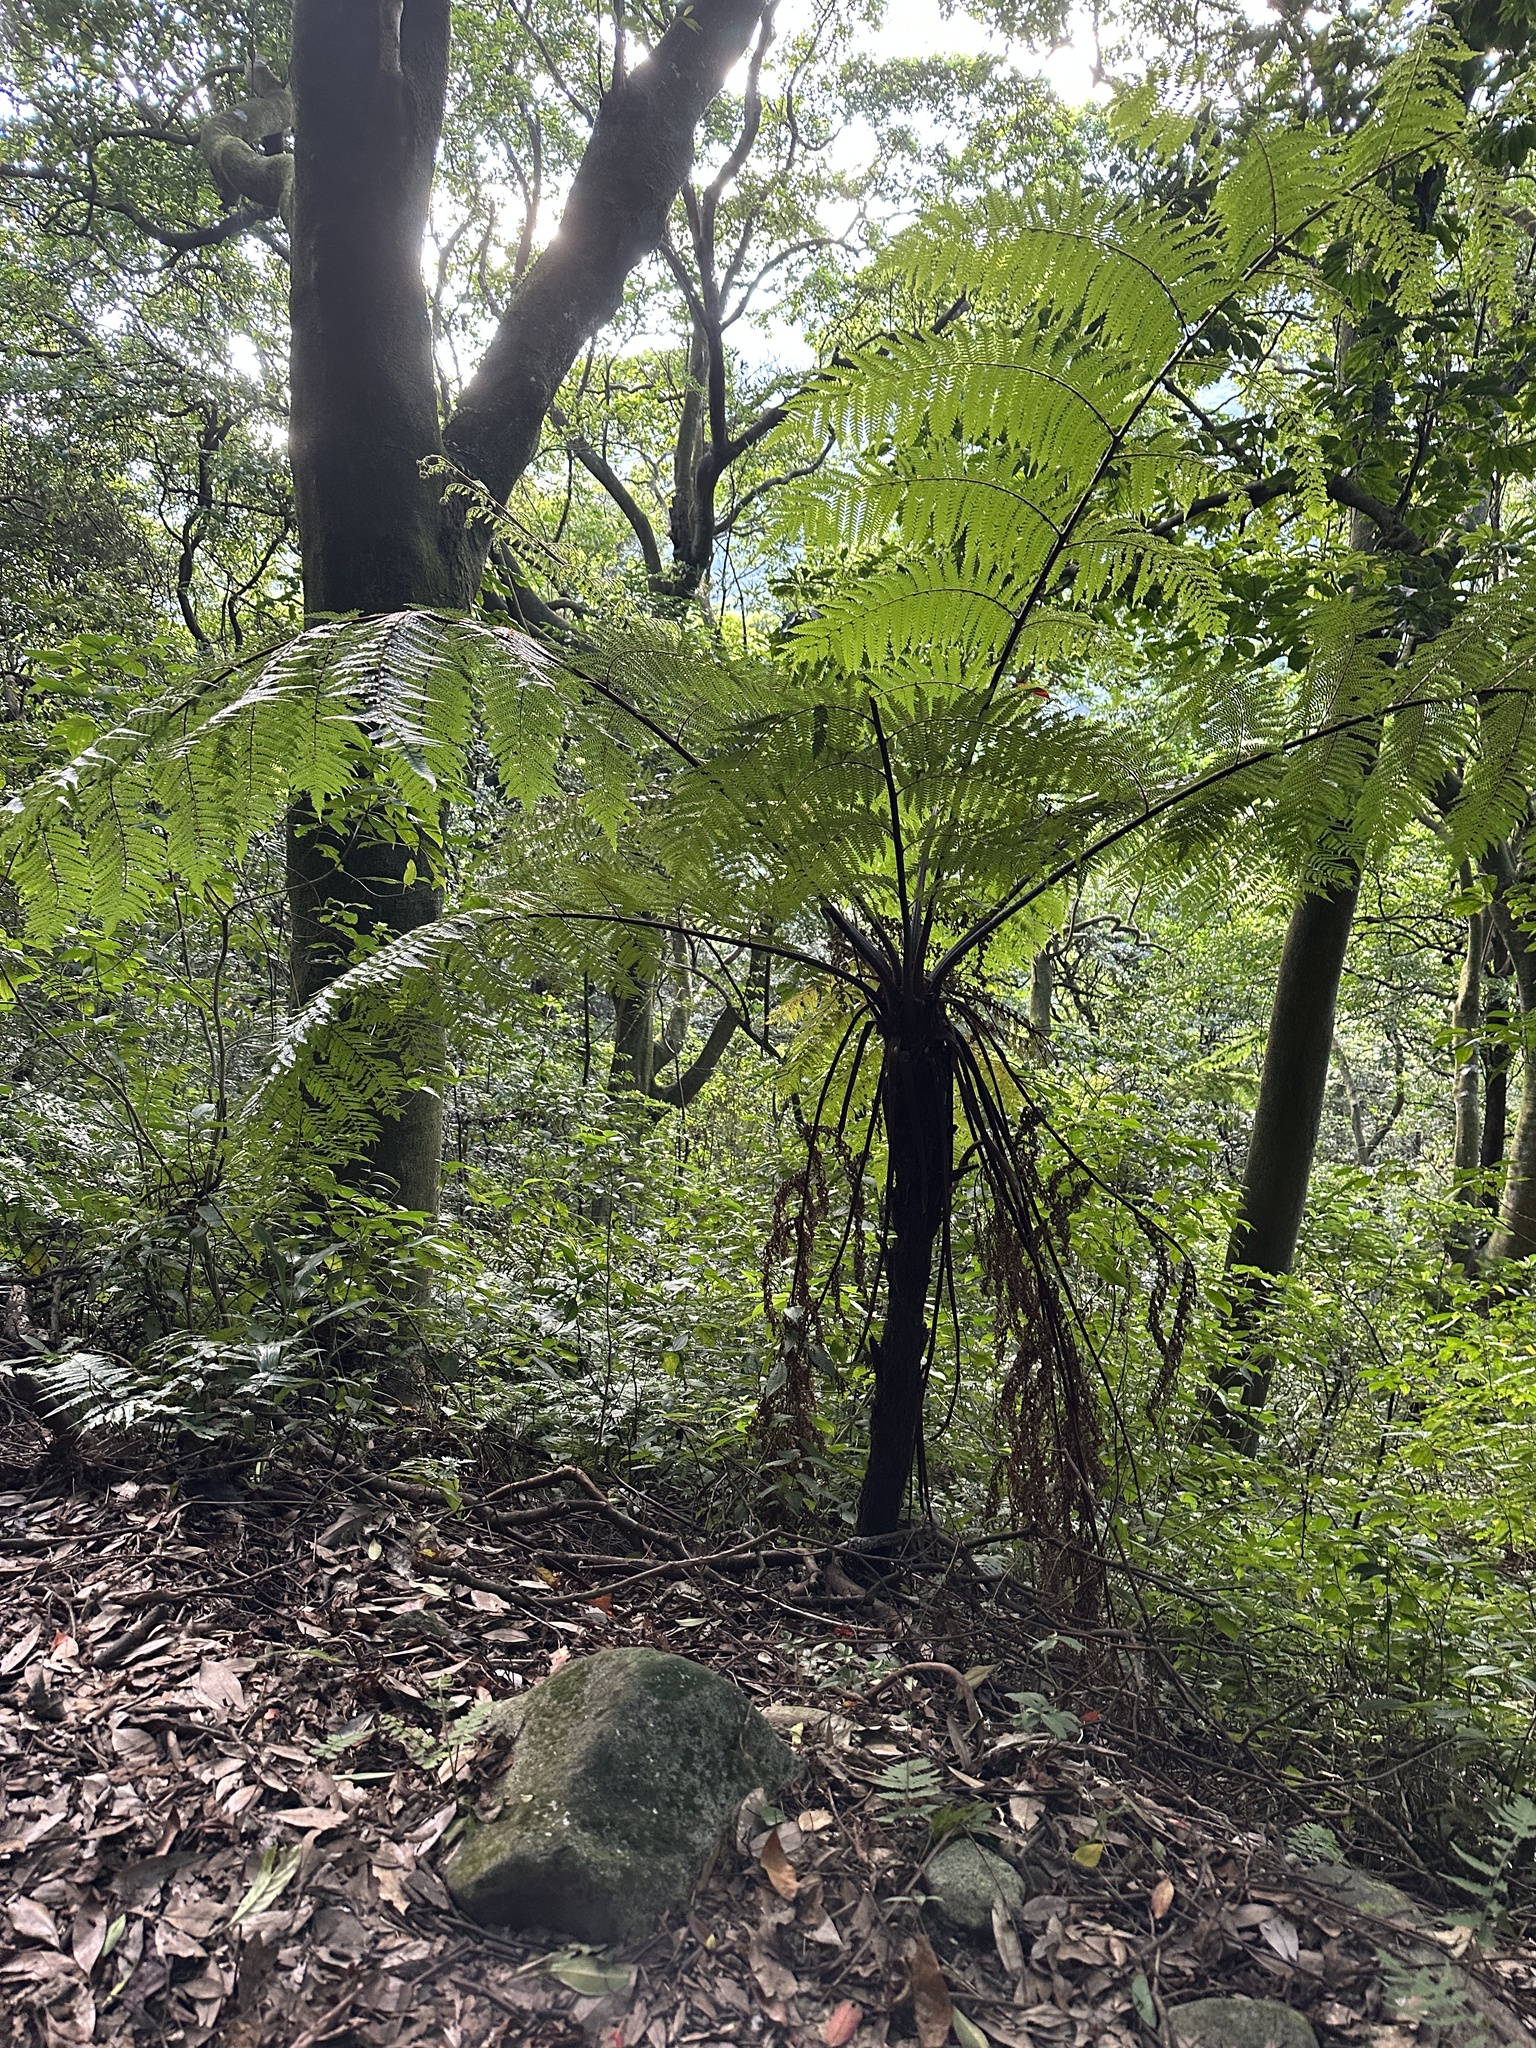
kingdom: Plantae
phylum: Tracheophyta
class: Polypodiopsida
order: Cyatheales
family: Cyatheaceae
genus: Alsophila
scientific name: Alsophila spinulosa
